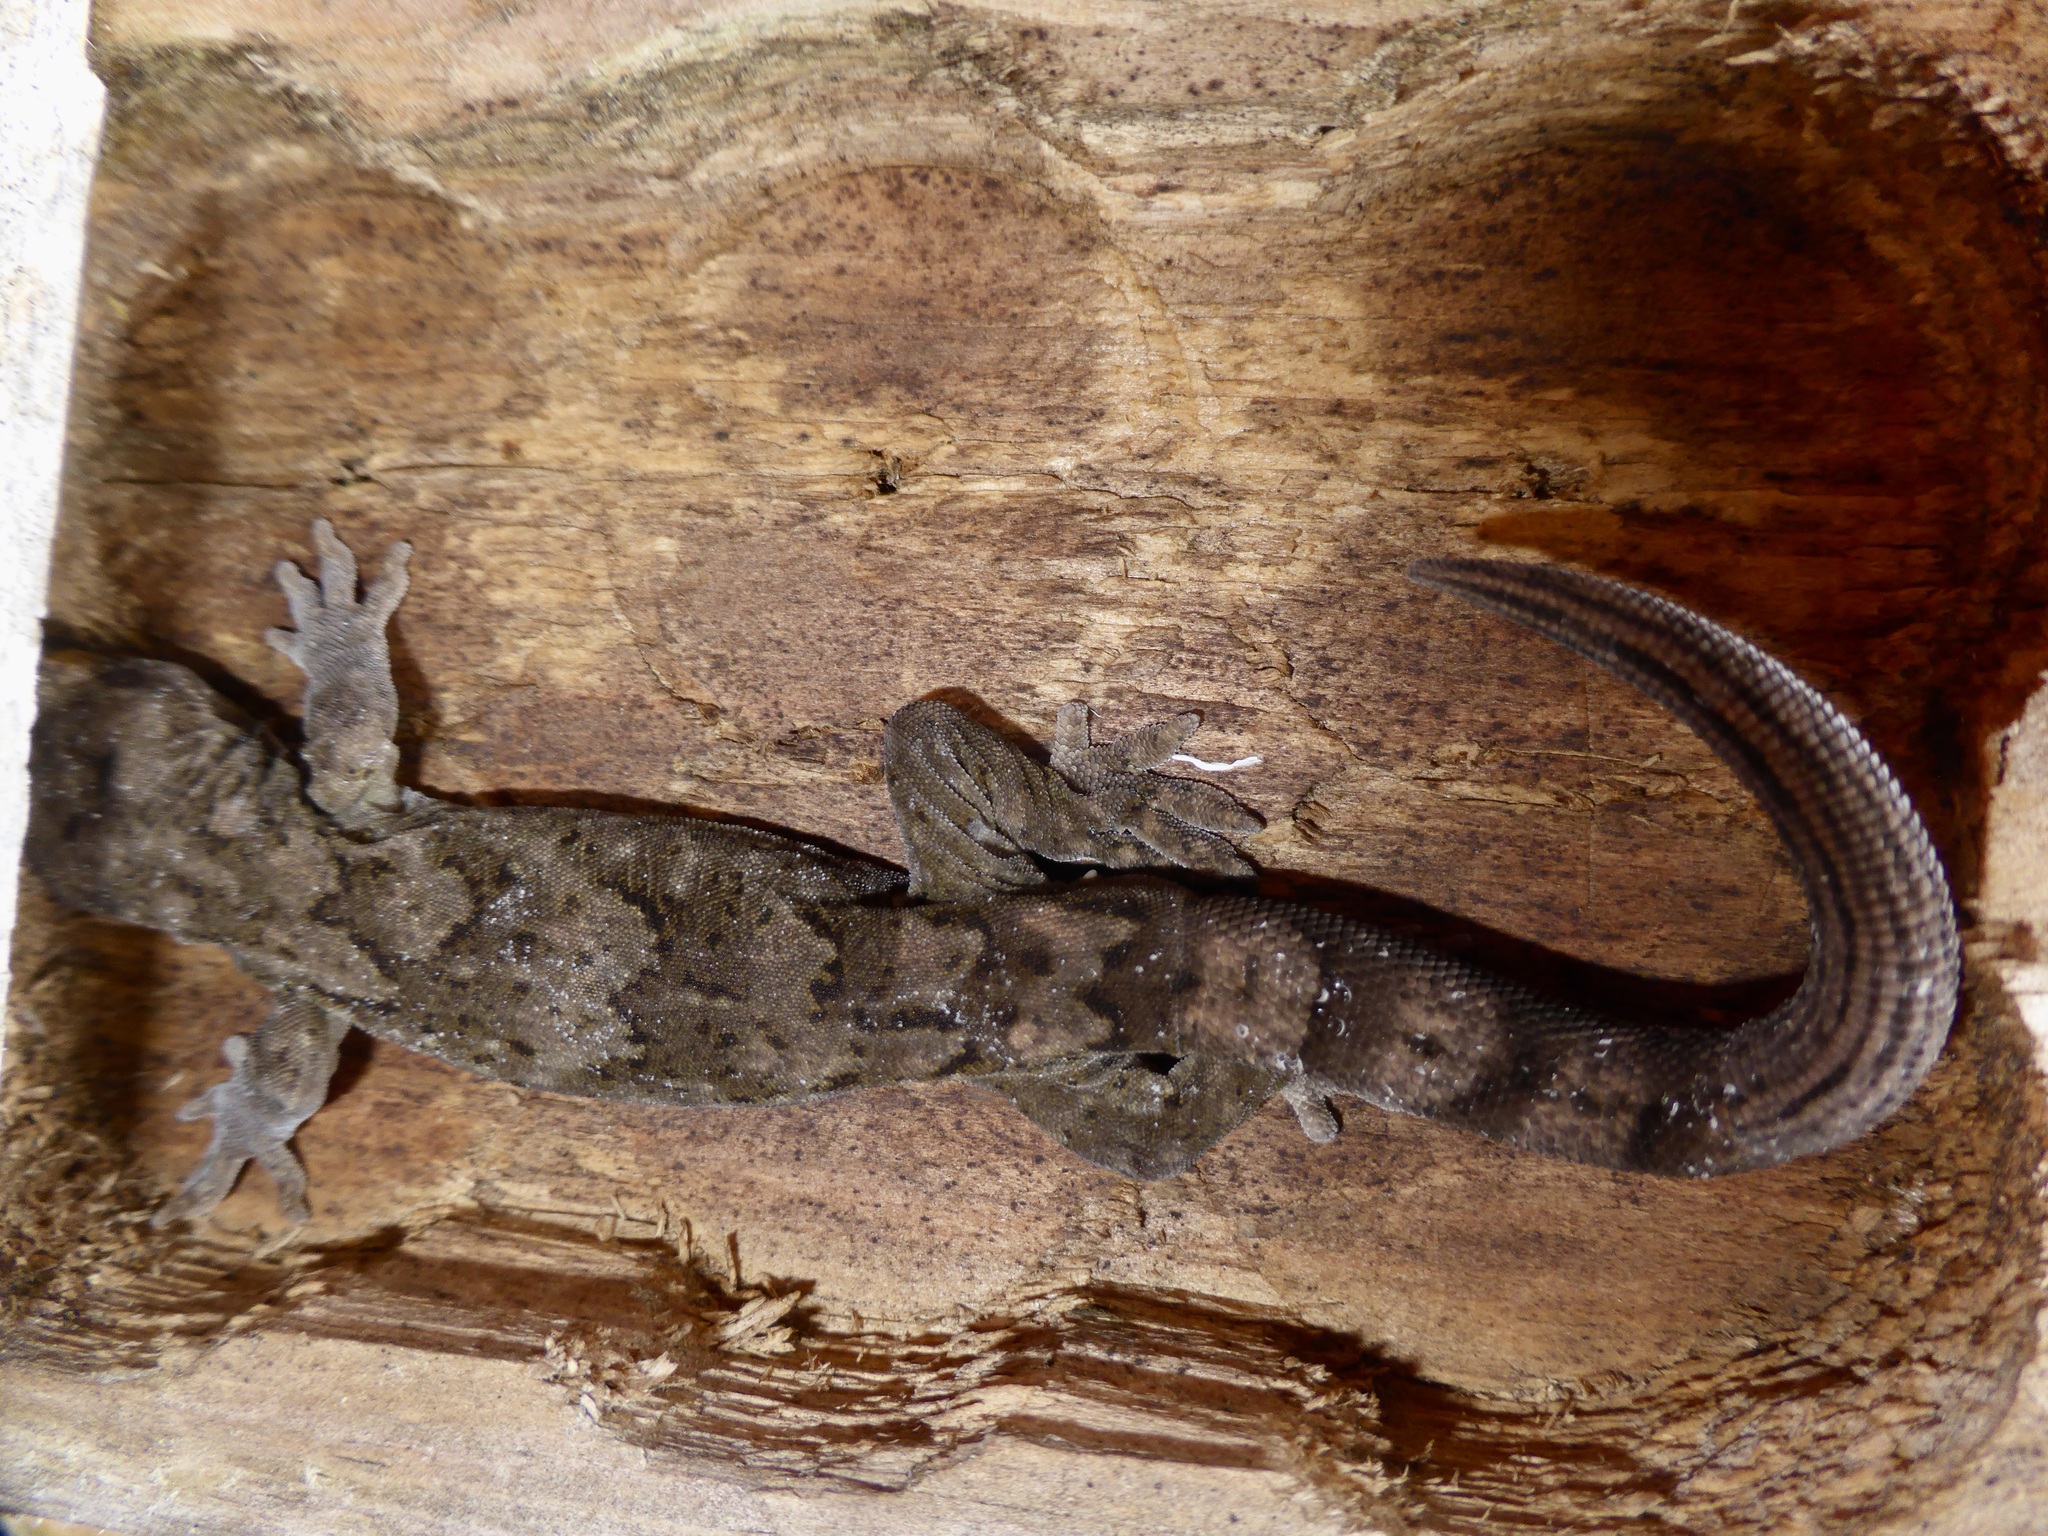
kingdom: Animalia
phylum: Chordata
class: Squamata
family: Diplodactylidae
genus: Woodworthia
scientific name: Woodworthia brunnea
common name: Canterbury gecko
